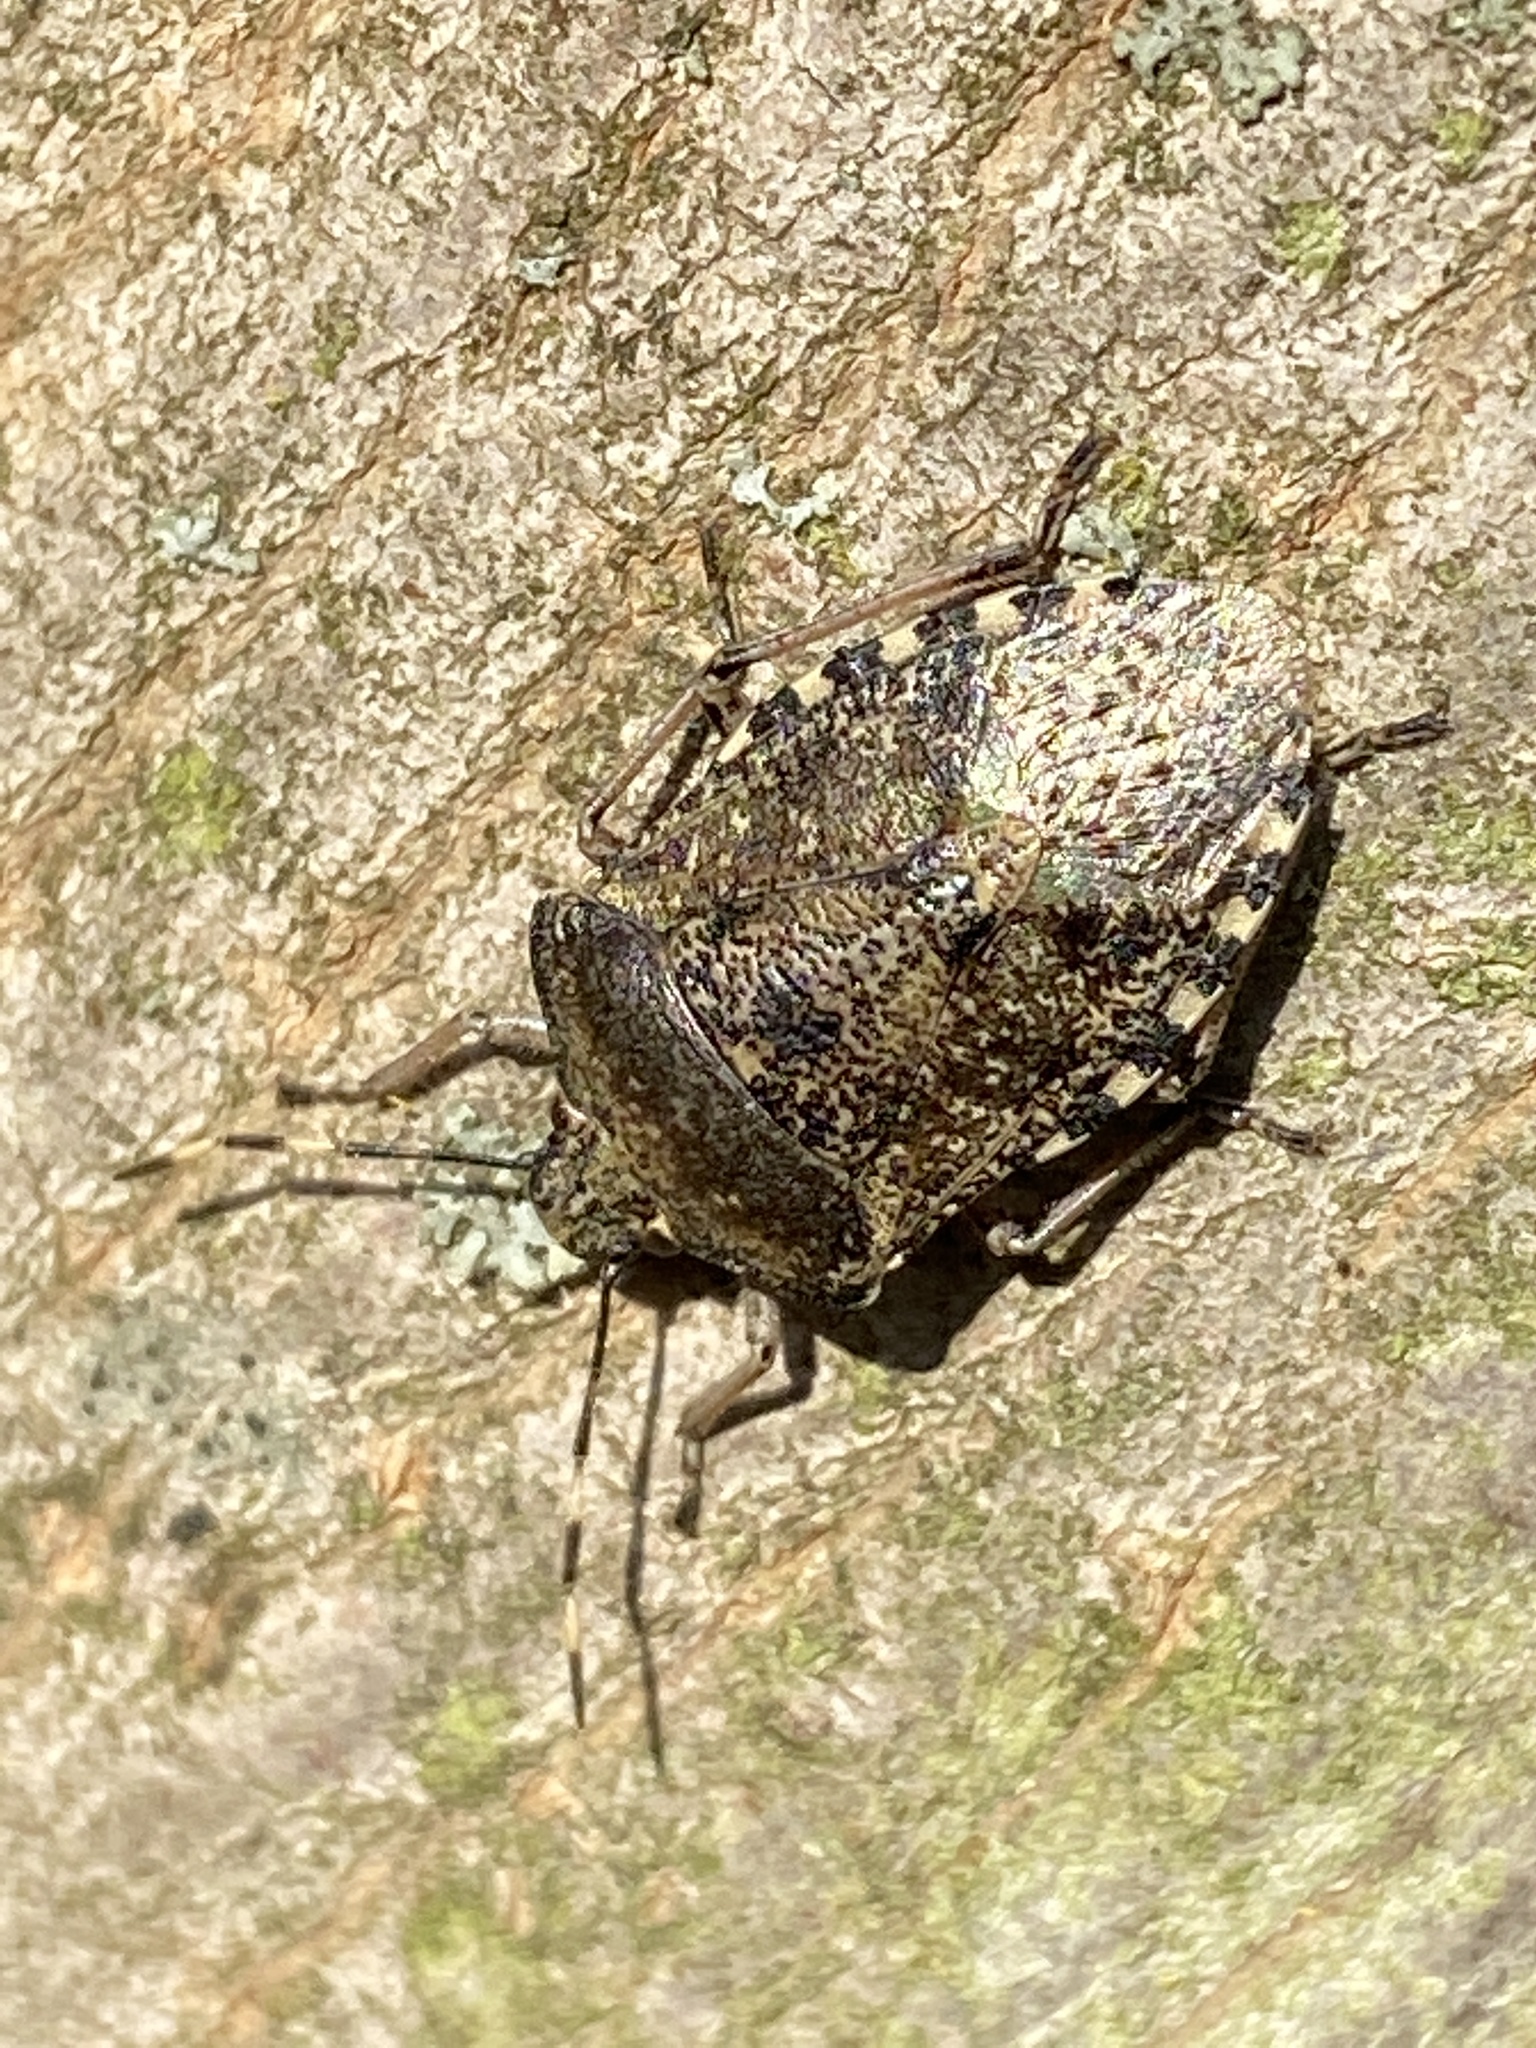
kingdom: Animalia
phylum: Arthropoda
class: Insecta
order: Hemiptera
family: Pentatomidae
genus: Rhaphigaster
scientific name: Rhaphigaster nebulosa
